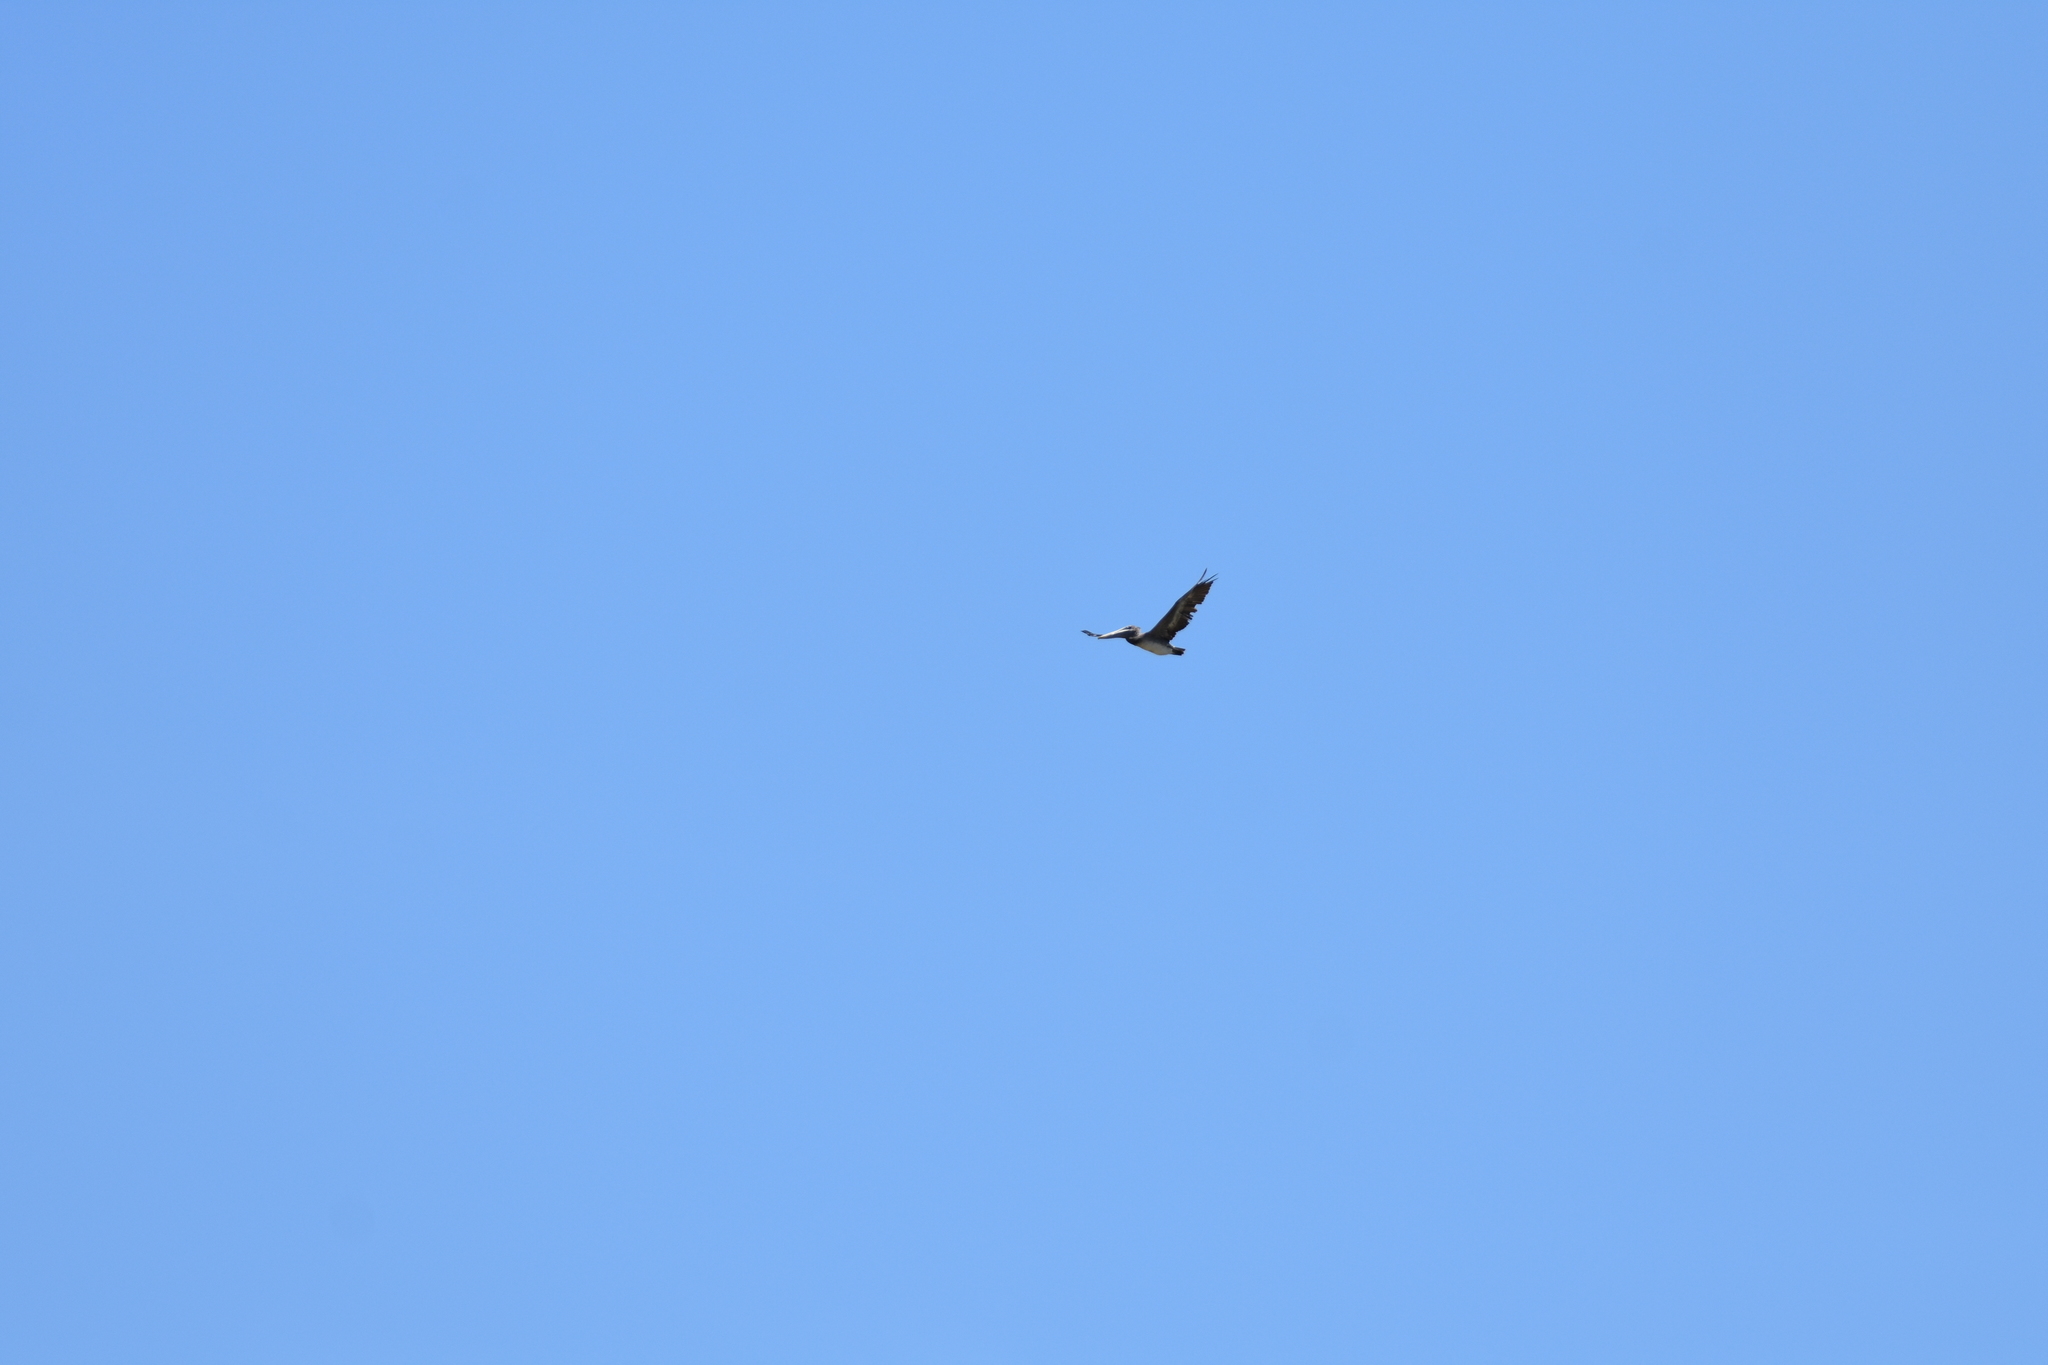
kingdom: Animalia
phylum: Chordata
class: Aves
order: Pelecaniformes
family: Pelecanidae
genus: Pelecanus
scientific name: Pelecanus occidentalis
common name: Brown pelican
